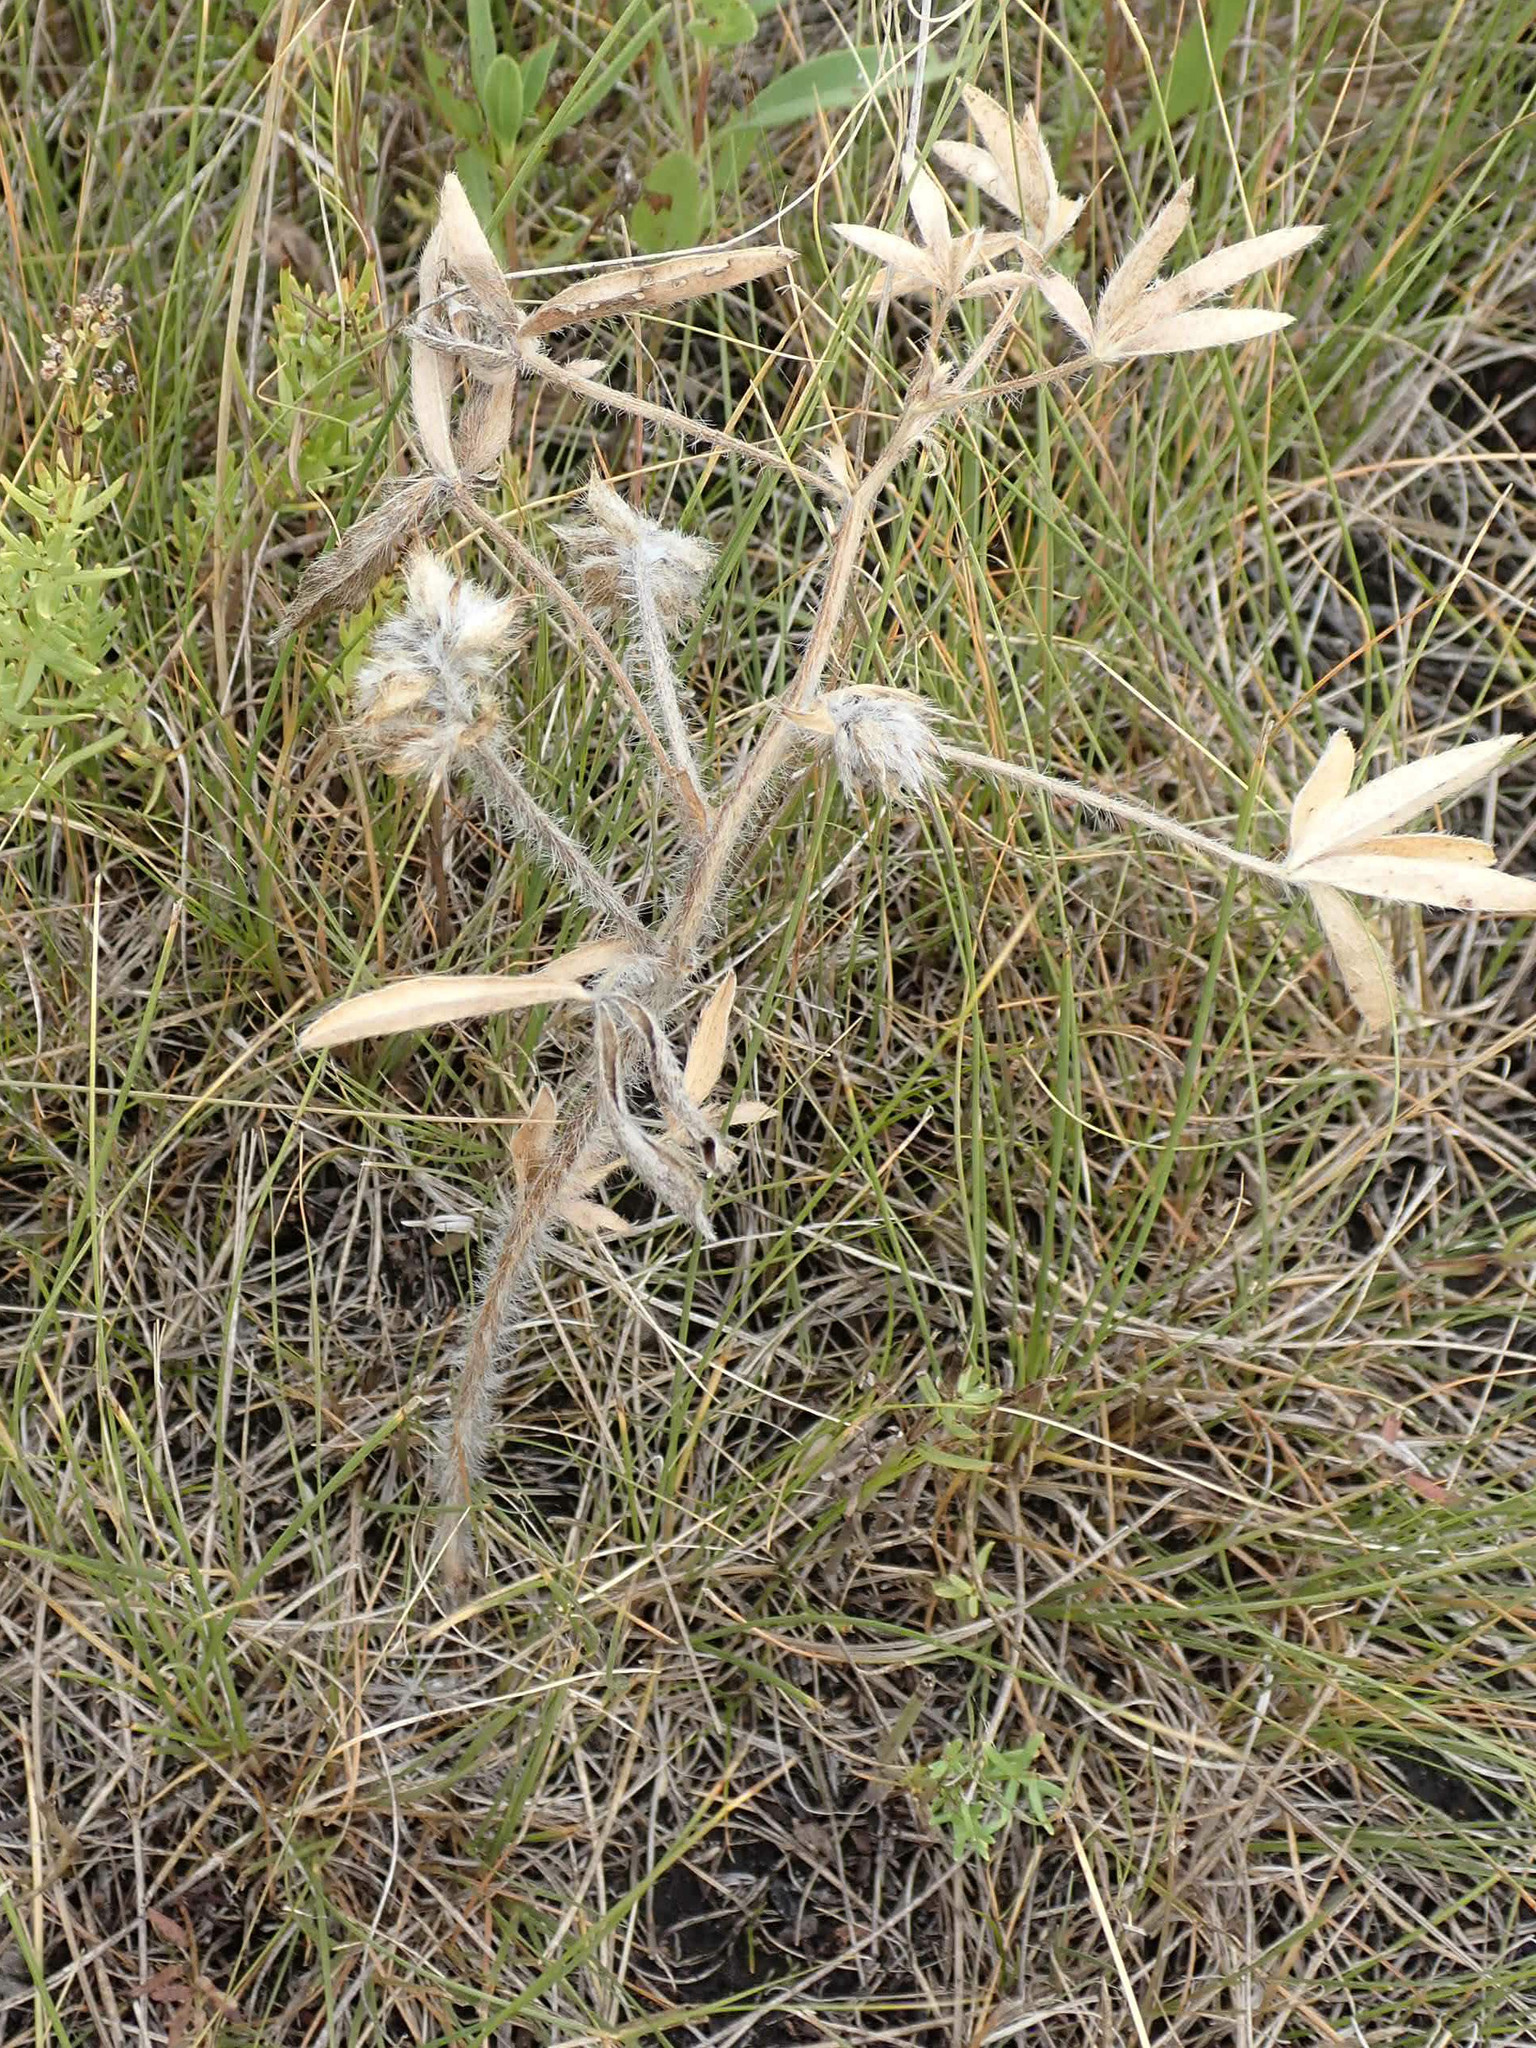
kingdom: Plantae
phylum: Tracheophyta
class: Magnoliopsida
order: Fabales
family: Fabaceae
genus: Pediomelum
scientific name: Pediomelum esculentum
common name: Indian-turnip
